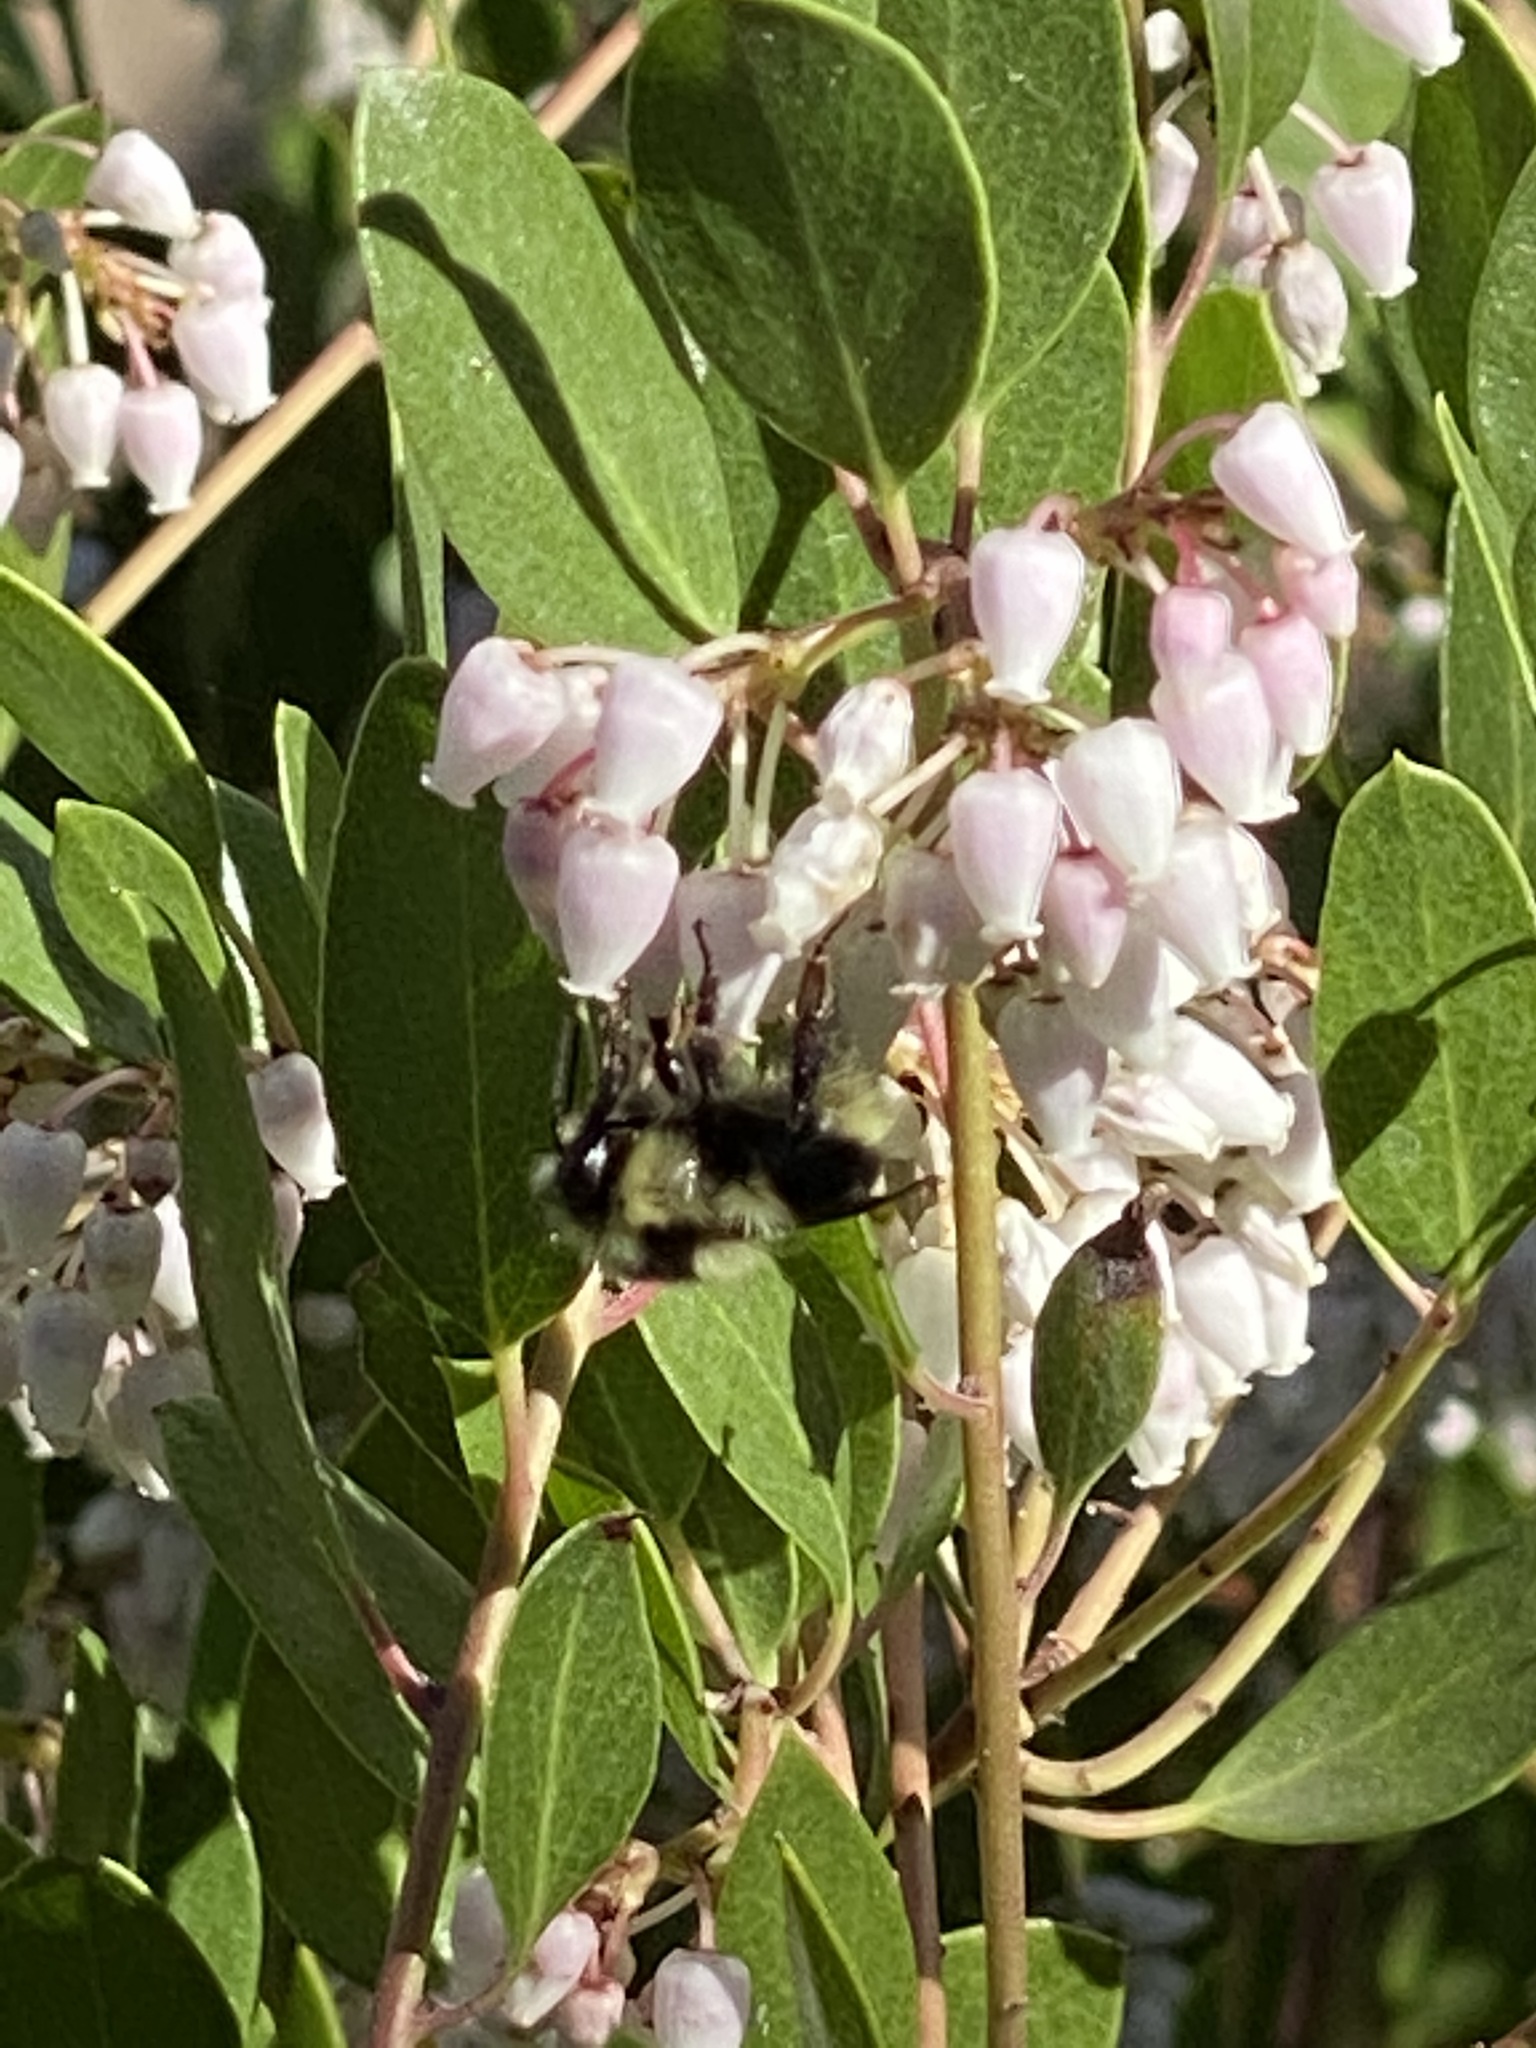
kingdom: Animalia
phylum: Arthropoda
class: Insecta
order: Hymenoptera
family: Apidae
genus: Bombus
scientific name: Bombus melanopygus
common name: Black tail bumble bee
